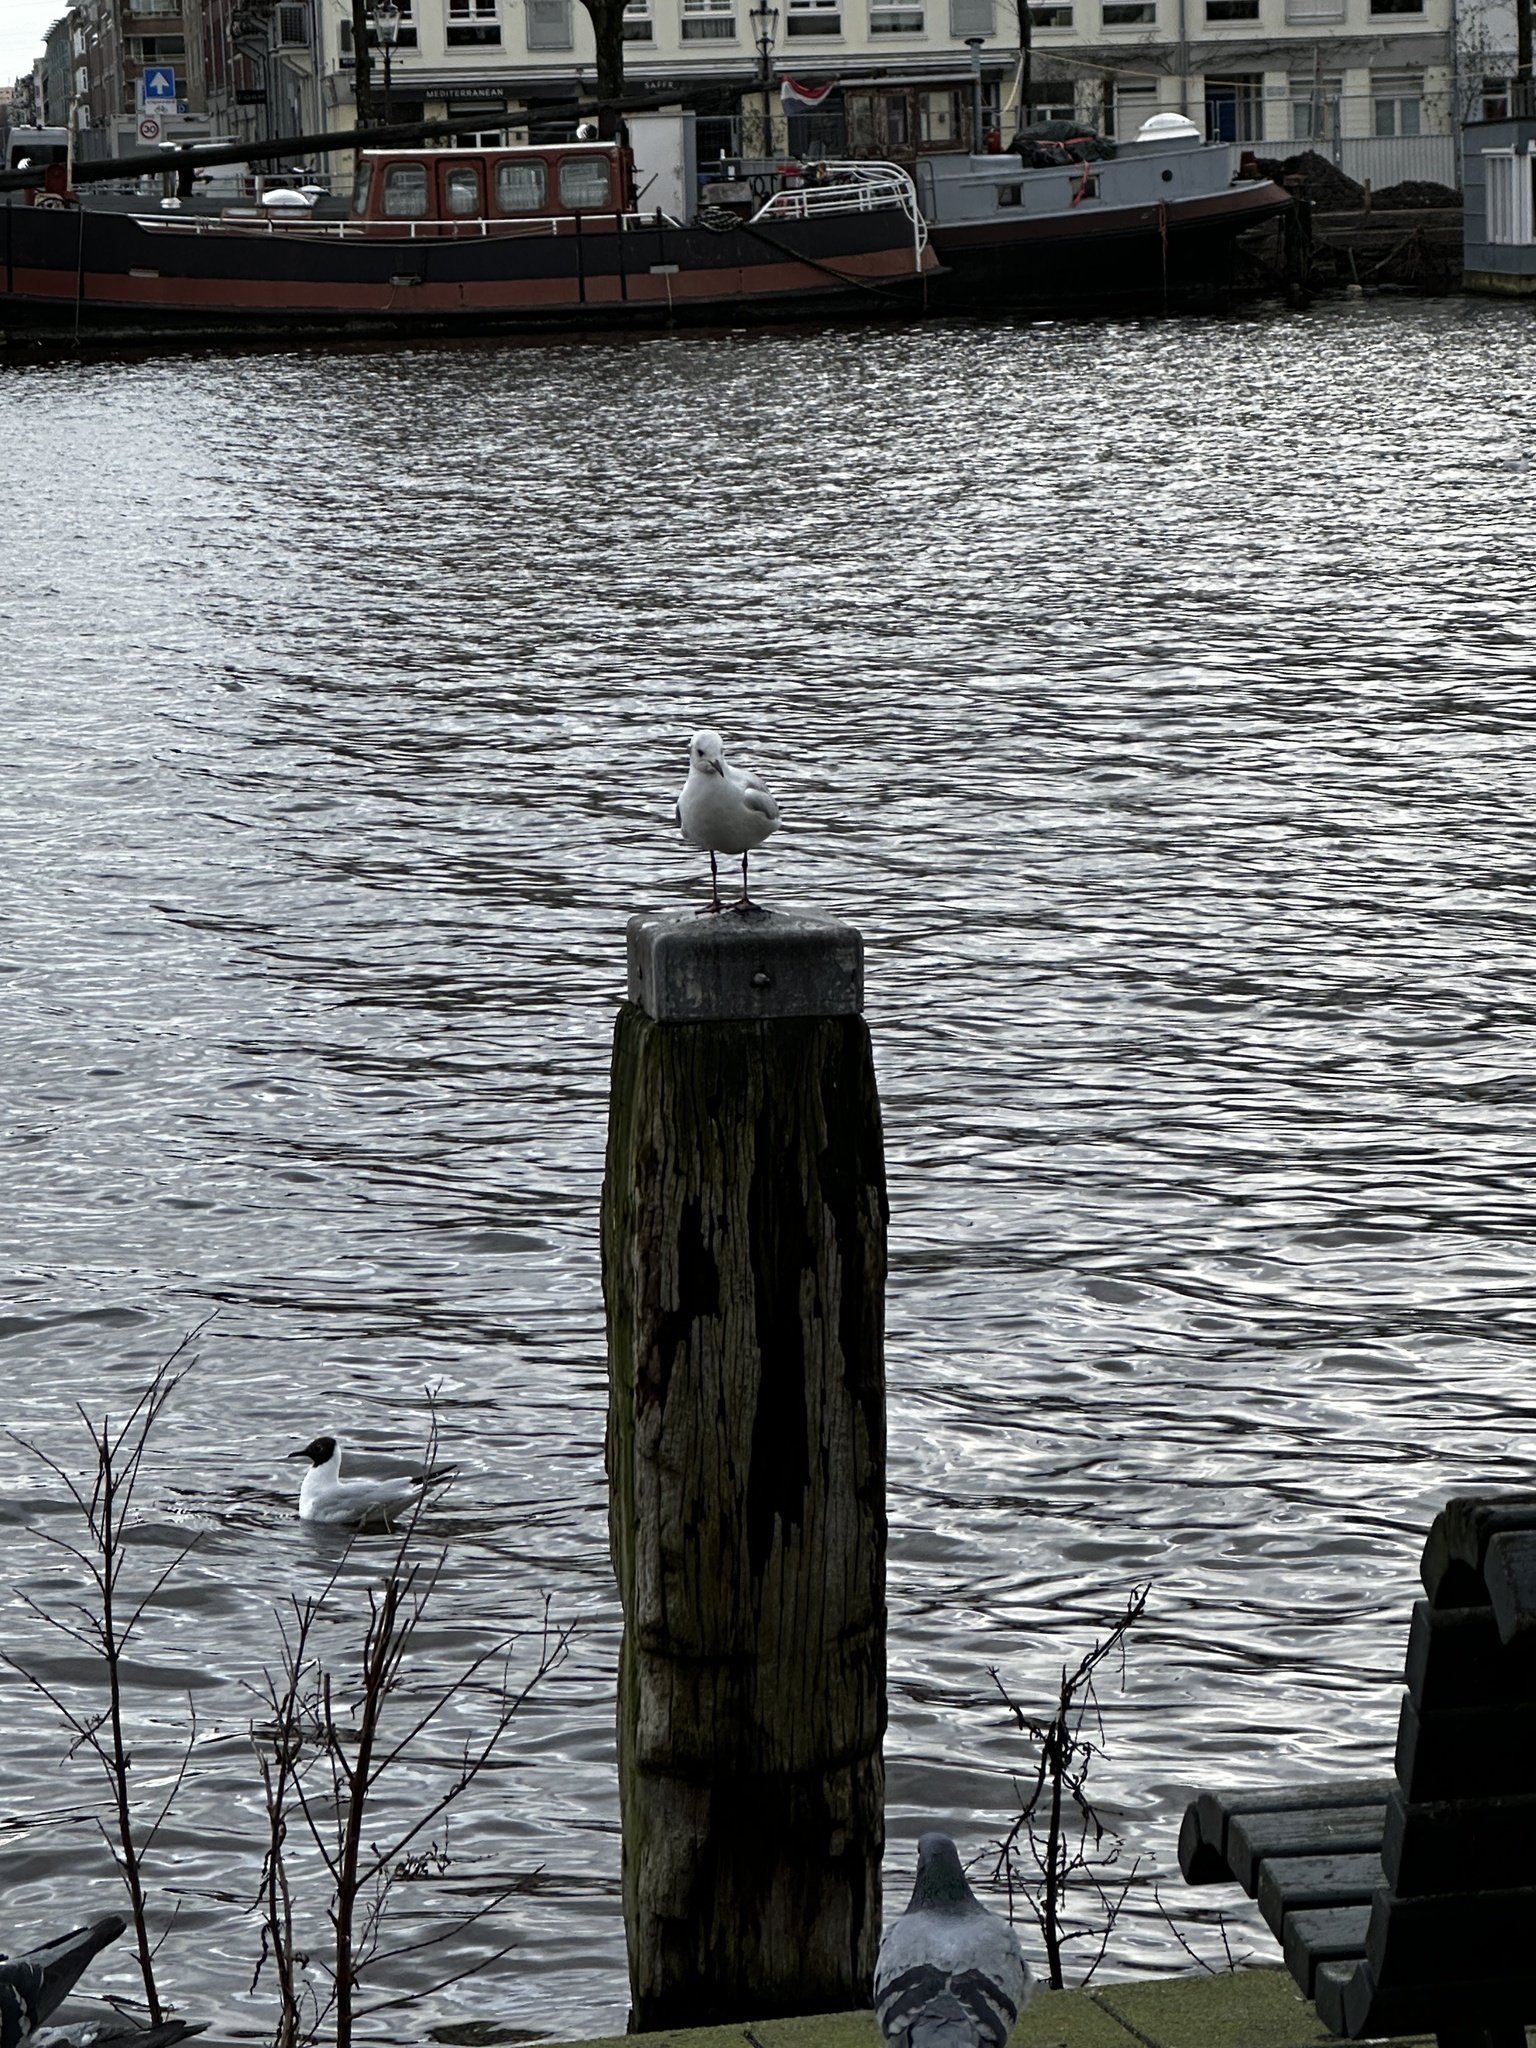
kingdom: Animalia
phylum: Chordata
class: Aves
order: Charadriiformes
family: Laridae
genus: Chroicocephalus
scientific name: Chroicocephalus ridibundus
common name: Black-headed gull
